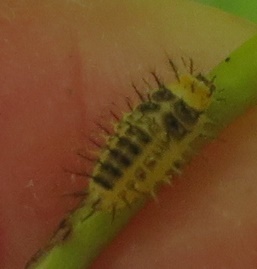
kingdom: Animalia
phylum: Arthropoda
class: Insecta
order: Coleoptera
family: Coccinellidae
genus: Halmus
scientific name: Halmus chalybeus
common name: Steel blue ladybird beetle
